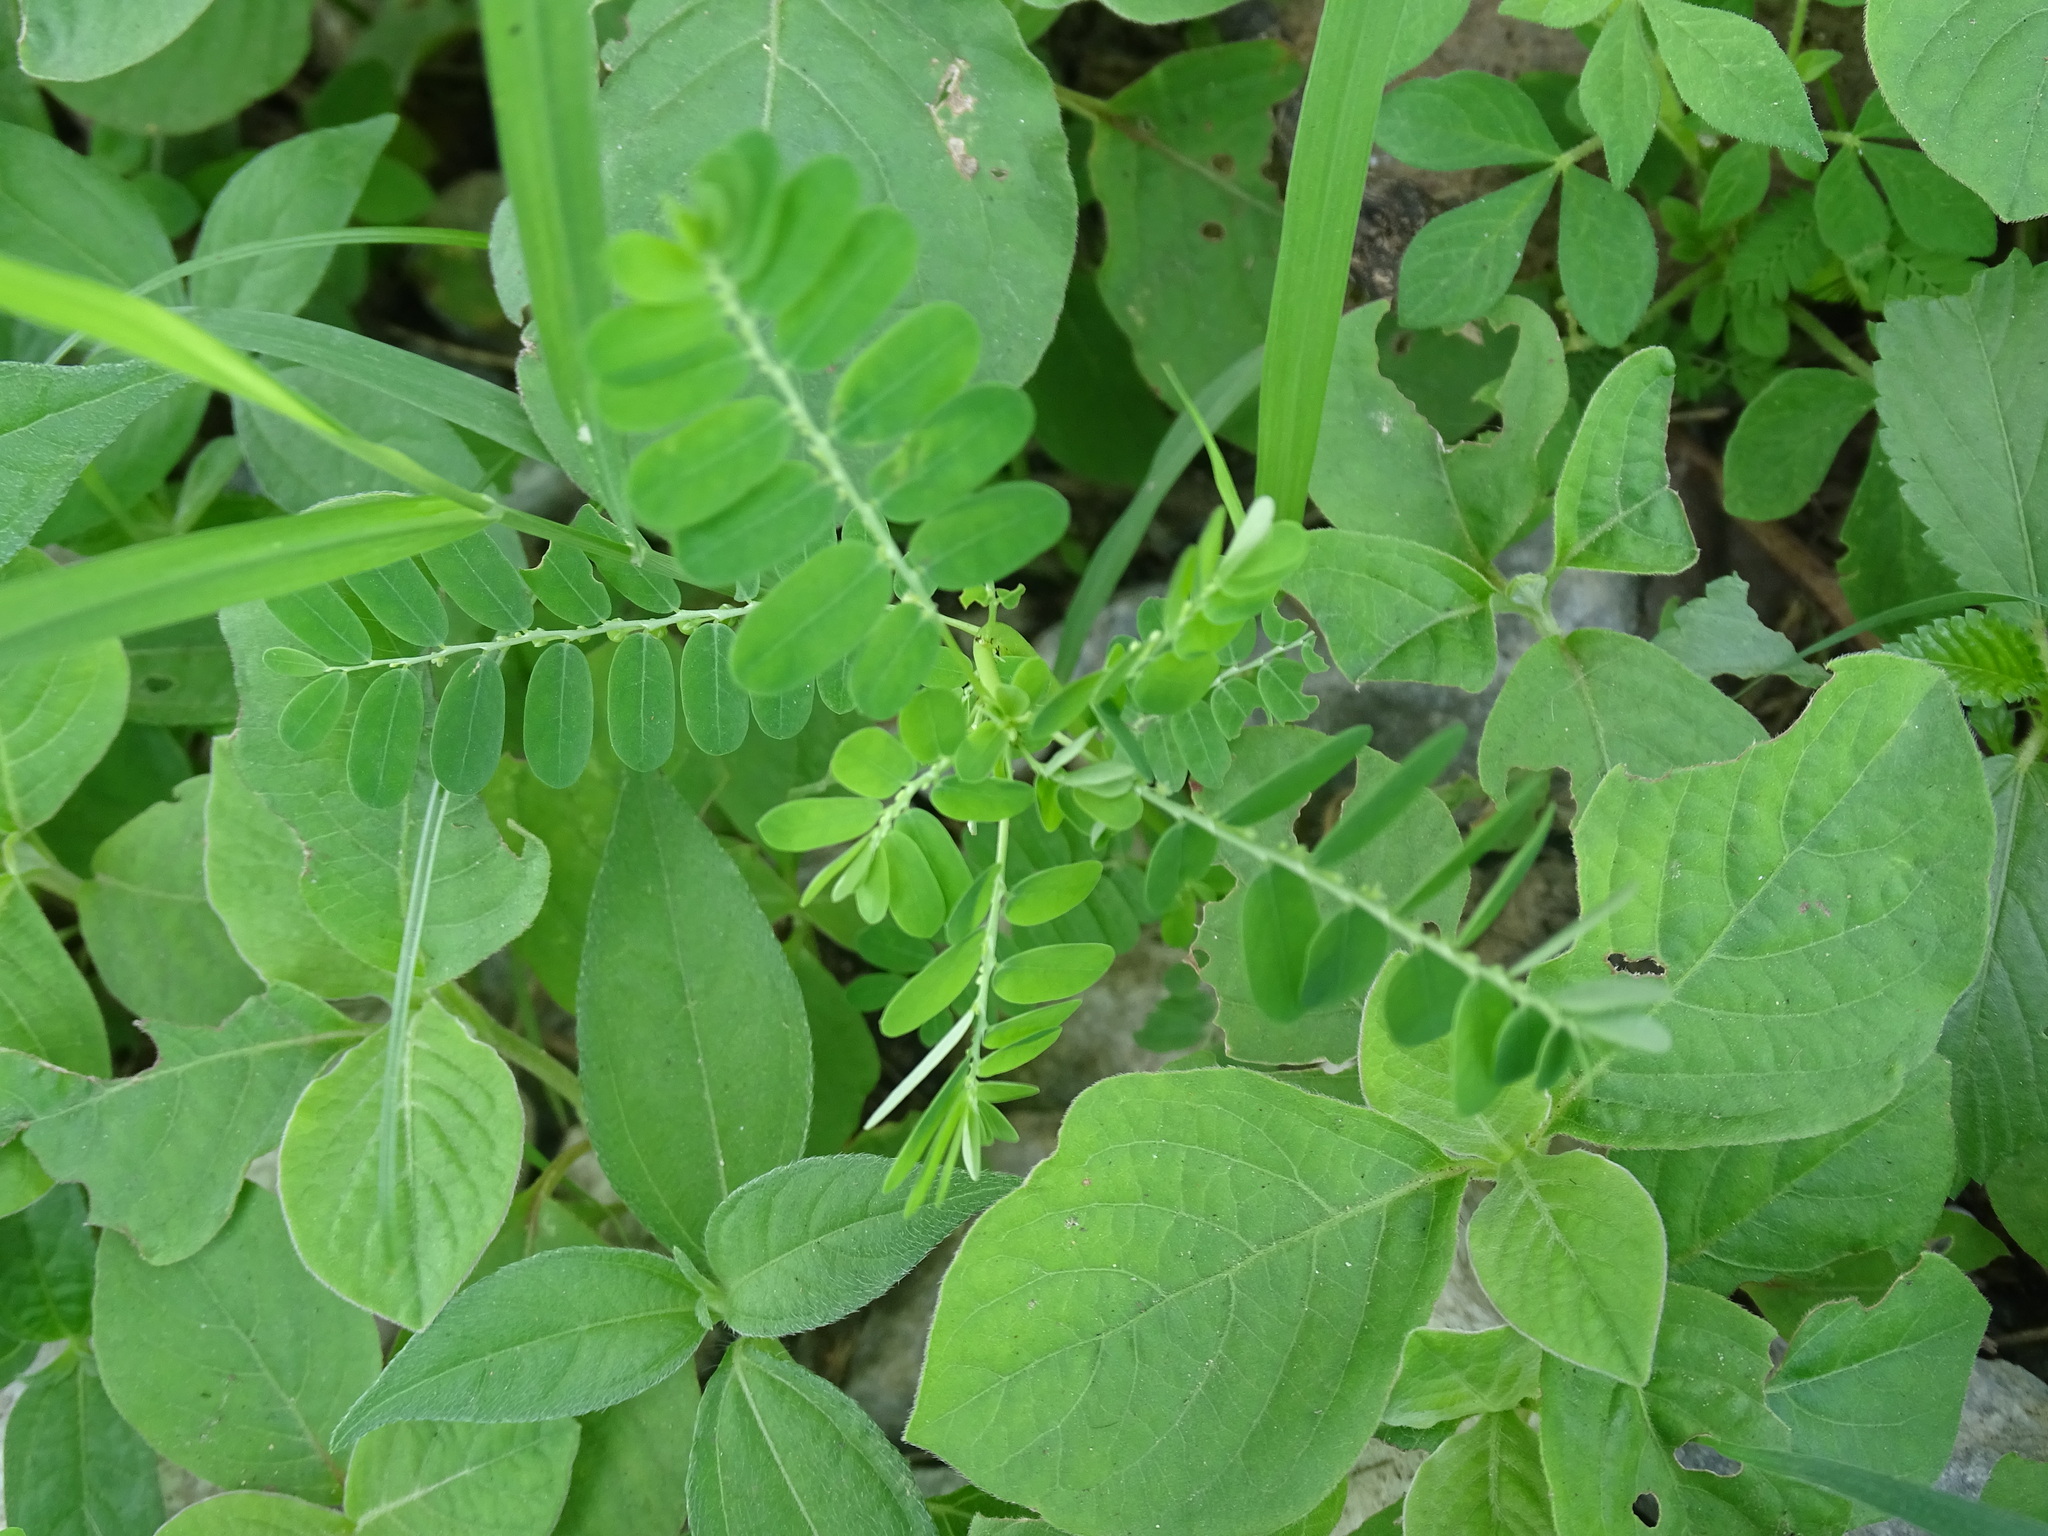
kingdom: Plantae
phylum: Tracheophyta
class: Magnoliopsida
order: Malpighiales
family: Phyllanthaceae
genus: Phyllanthus
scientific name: Phyllanthus niruri
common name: Niruri
